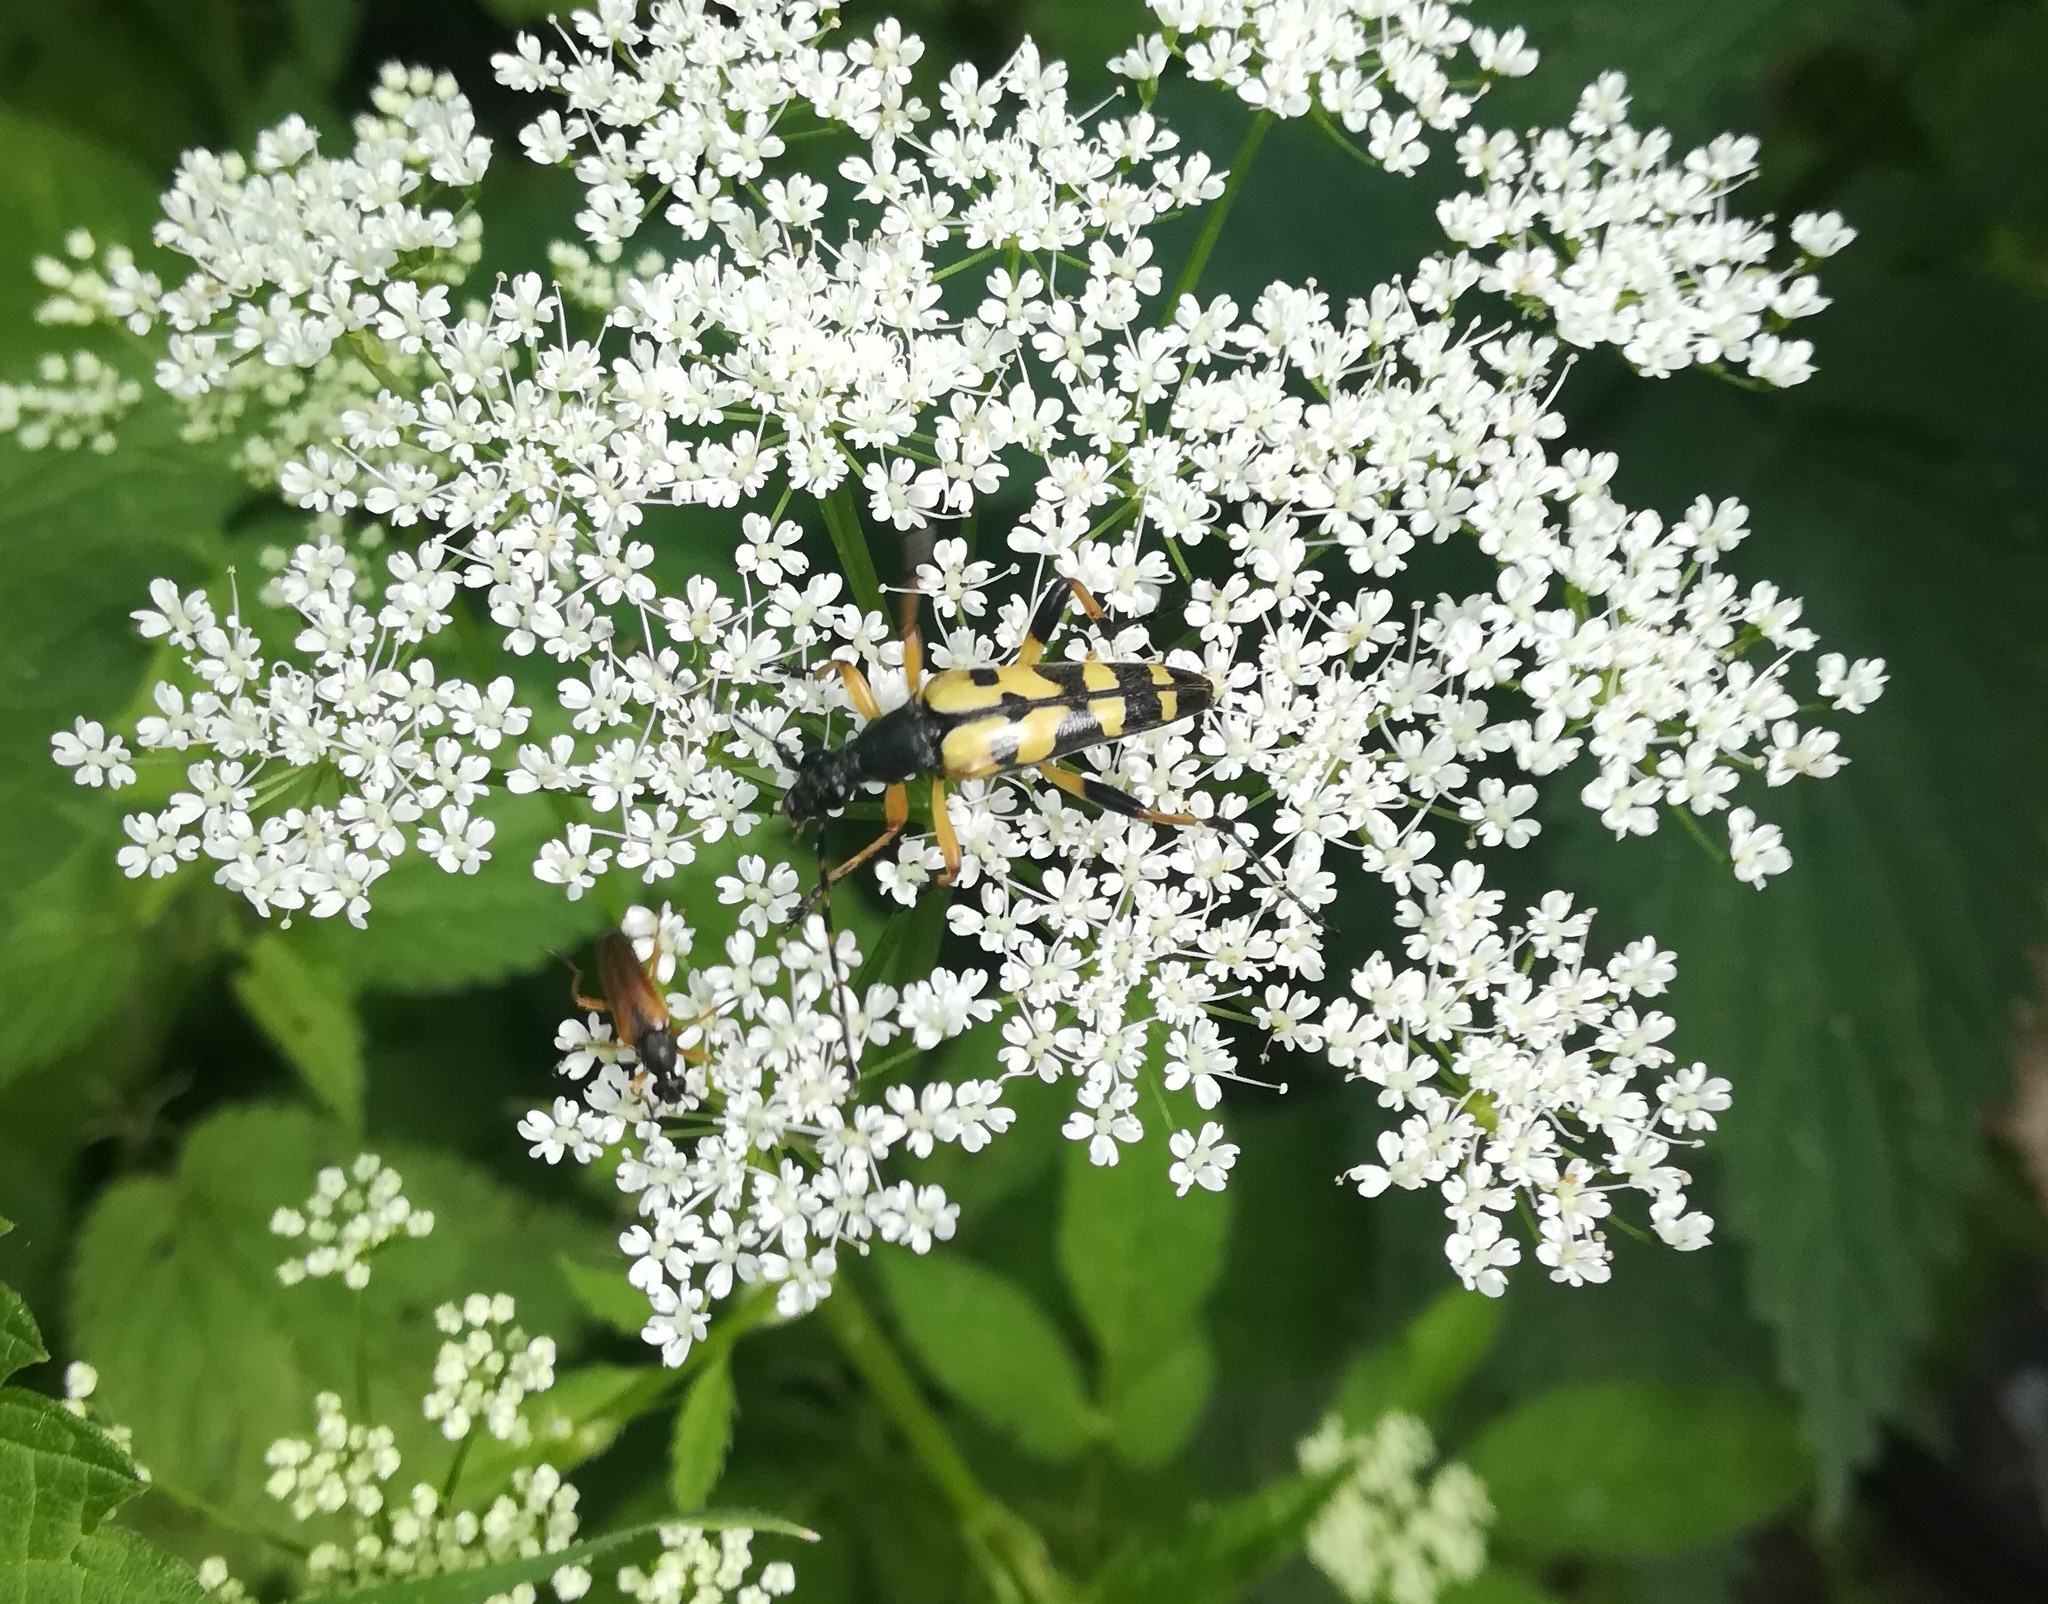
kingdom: Animalia
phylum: Arthropoda
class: Insecta
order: Coleoptera
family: Cerambycidae
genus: Rutpela
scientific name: Rutpela maculata
